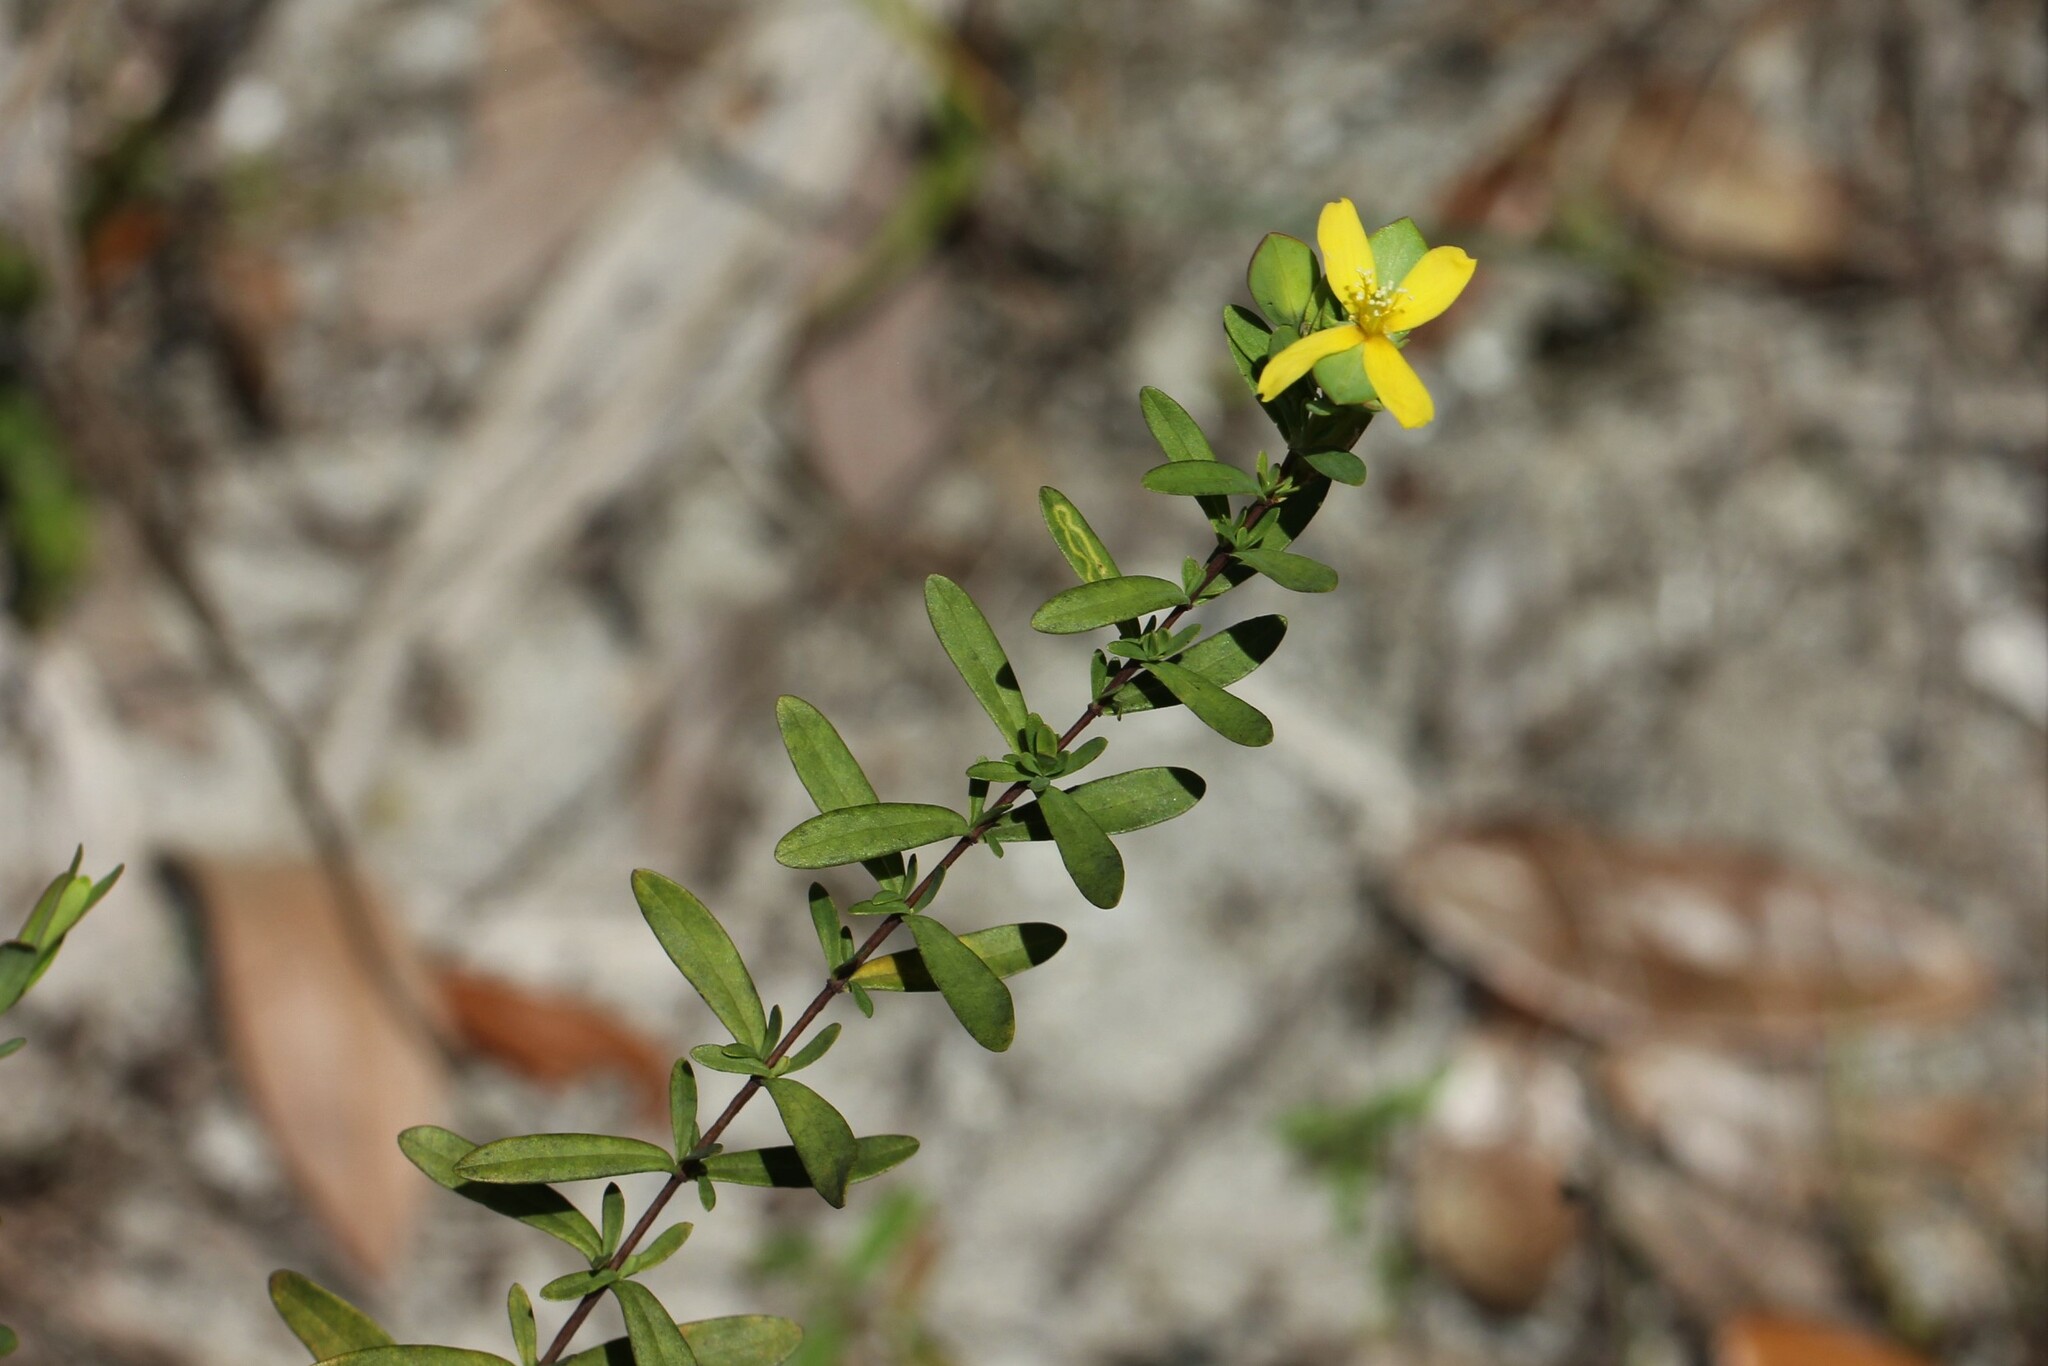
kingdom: Plantae
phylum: Tracheophyta
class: Magnoliopsida
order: Malpighiales
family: Hypericaceae
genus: Hypericum
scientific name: Hypericum hypericoides
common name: St. andrew's cross
